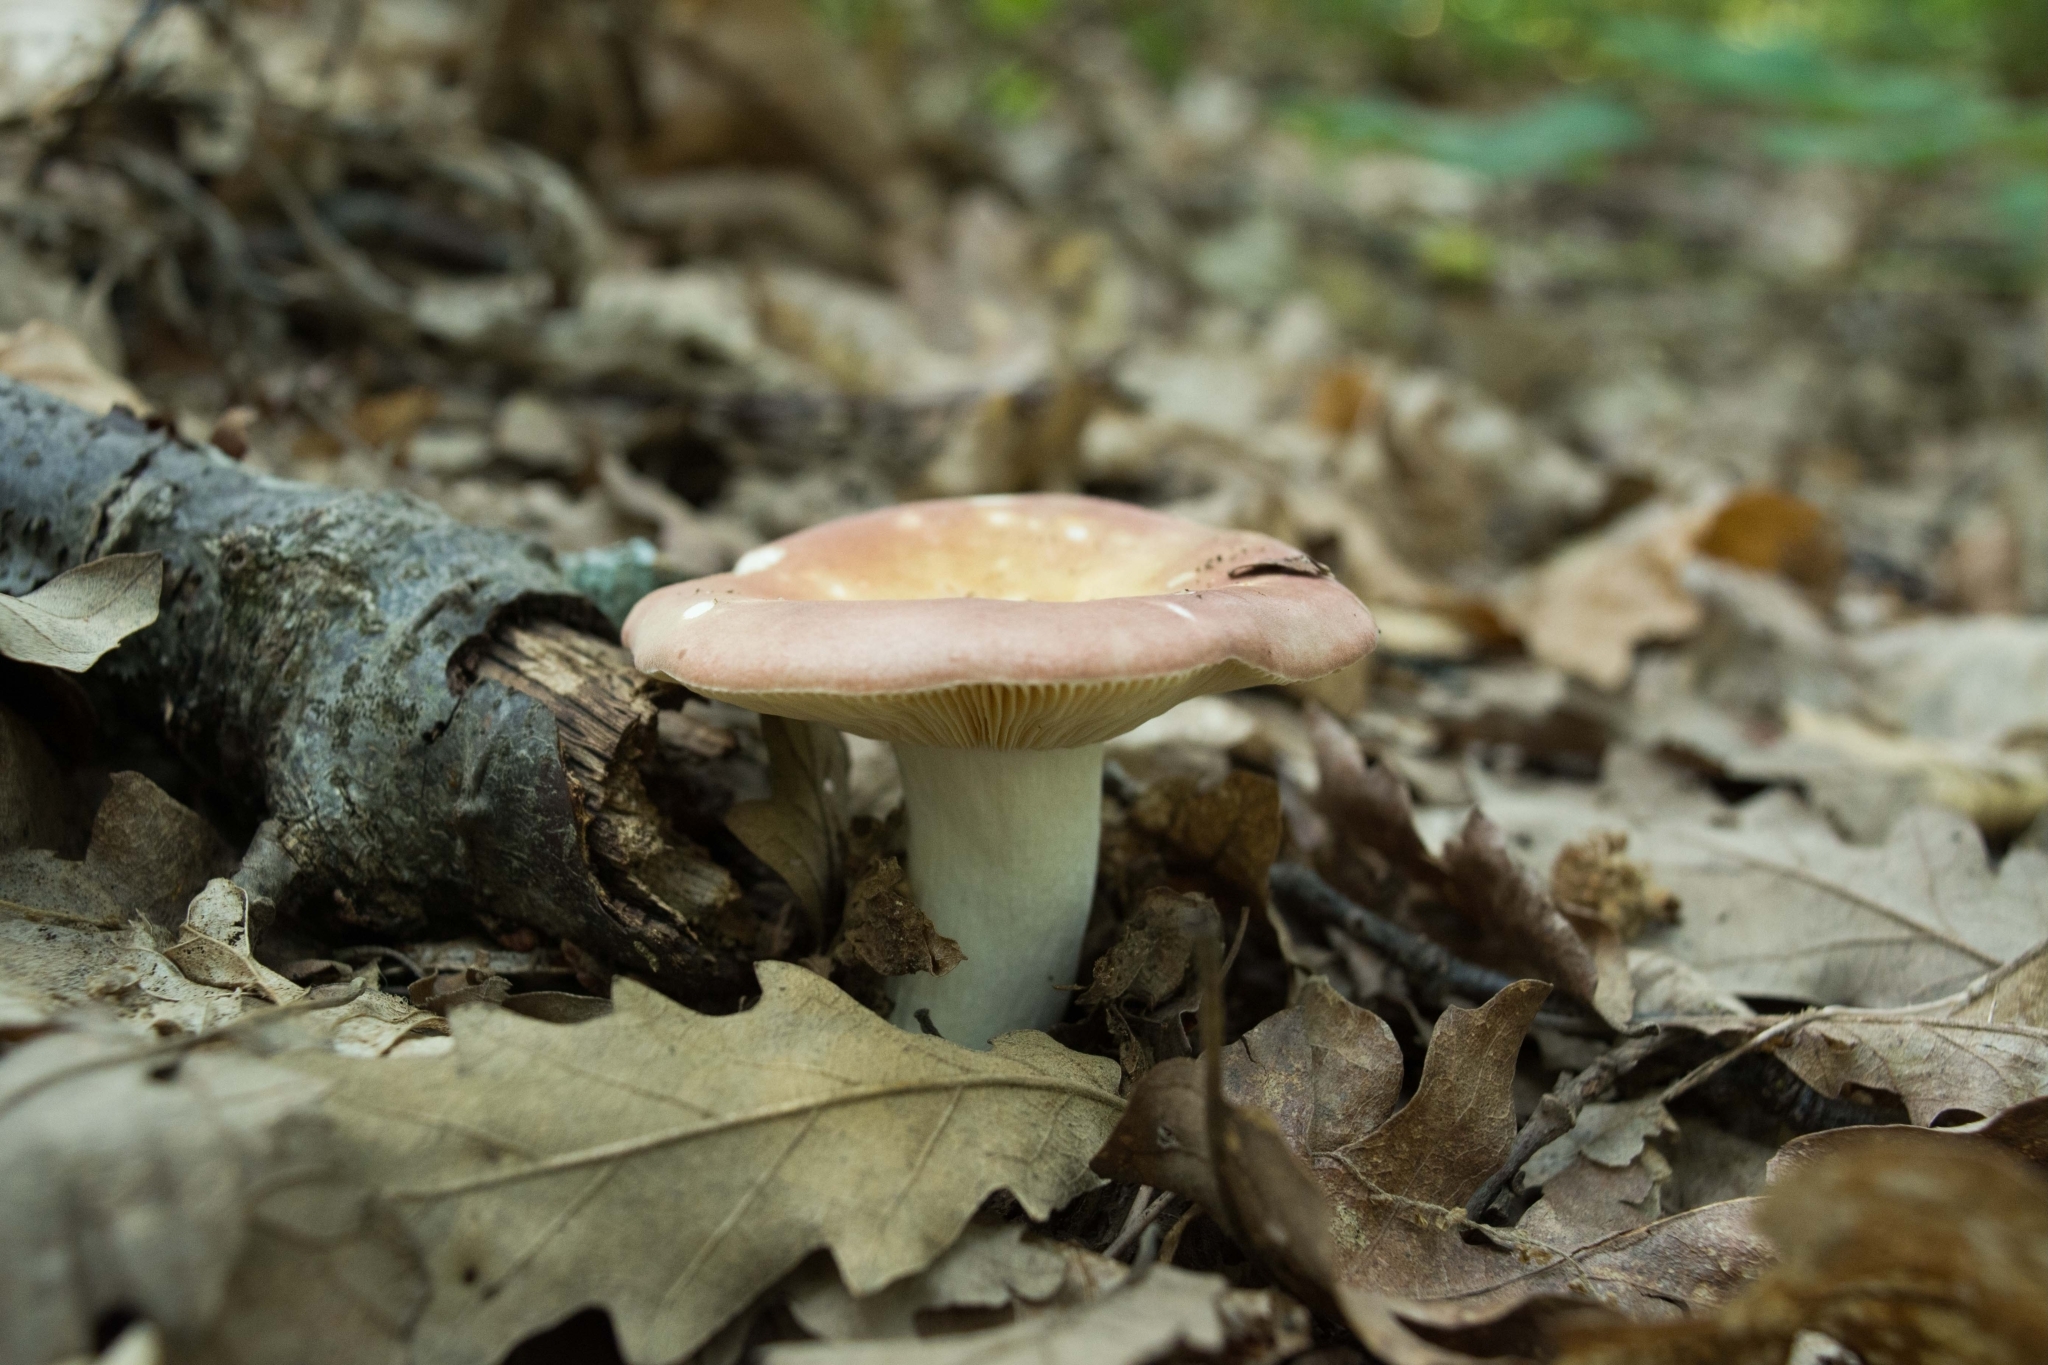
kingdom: Fungi
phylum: Basidiomycota
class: Agaricomycetes
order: Russulales
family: Russulaceae
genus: Russula
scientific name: Russula vesca
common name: Bare-toothed russula
